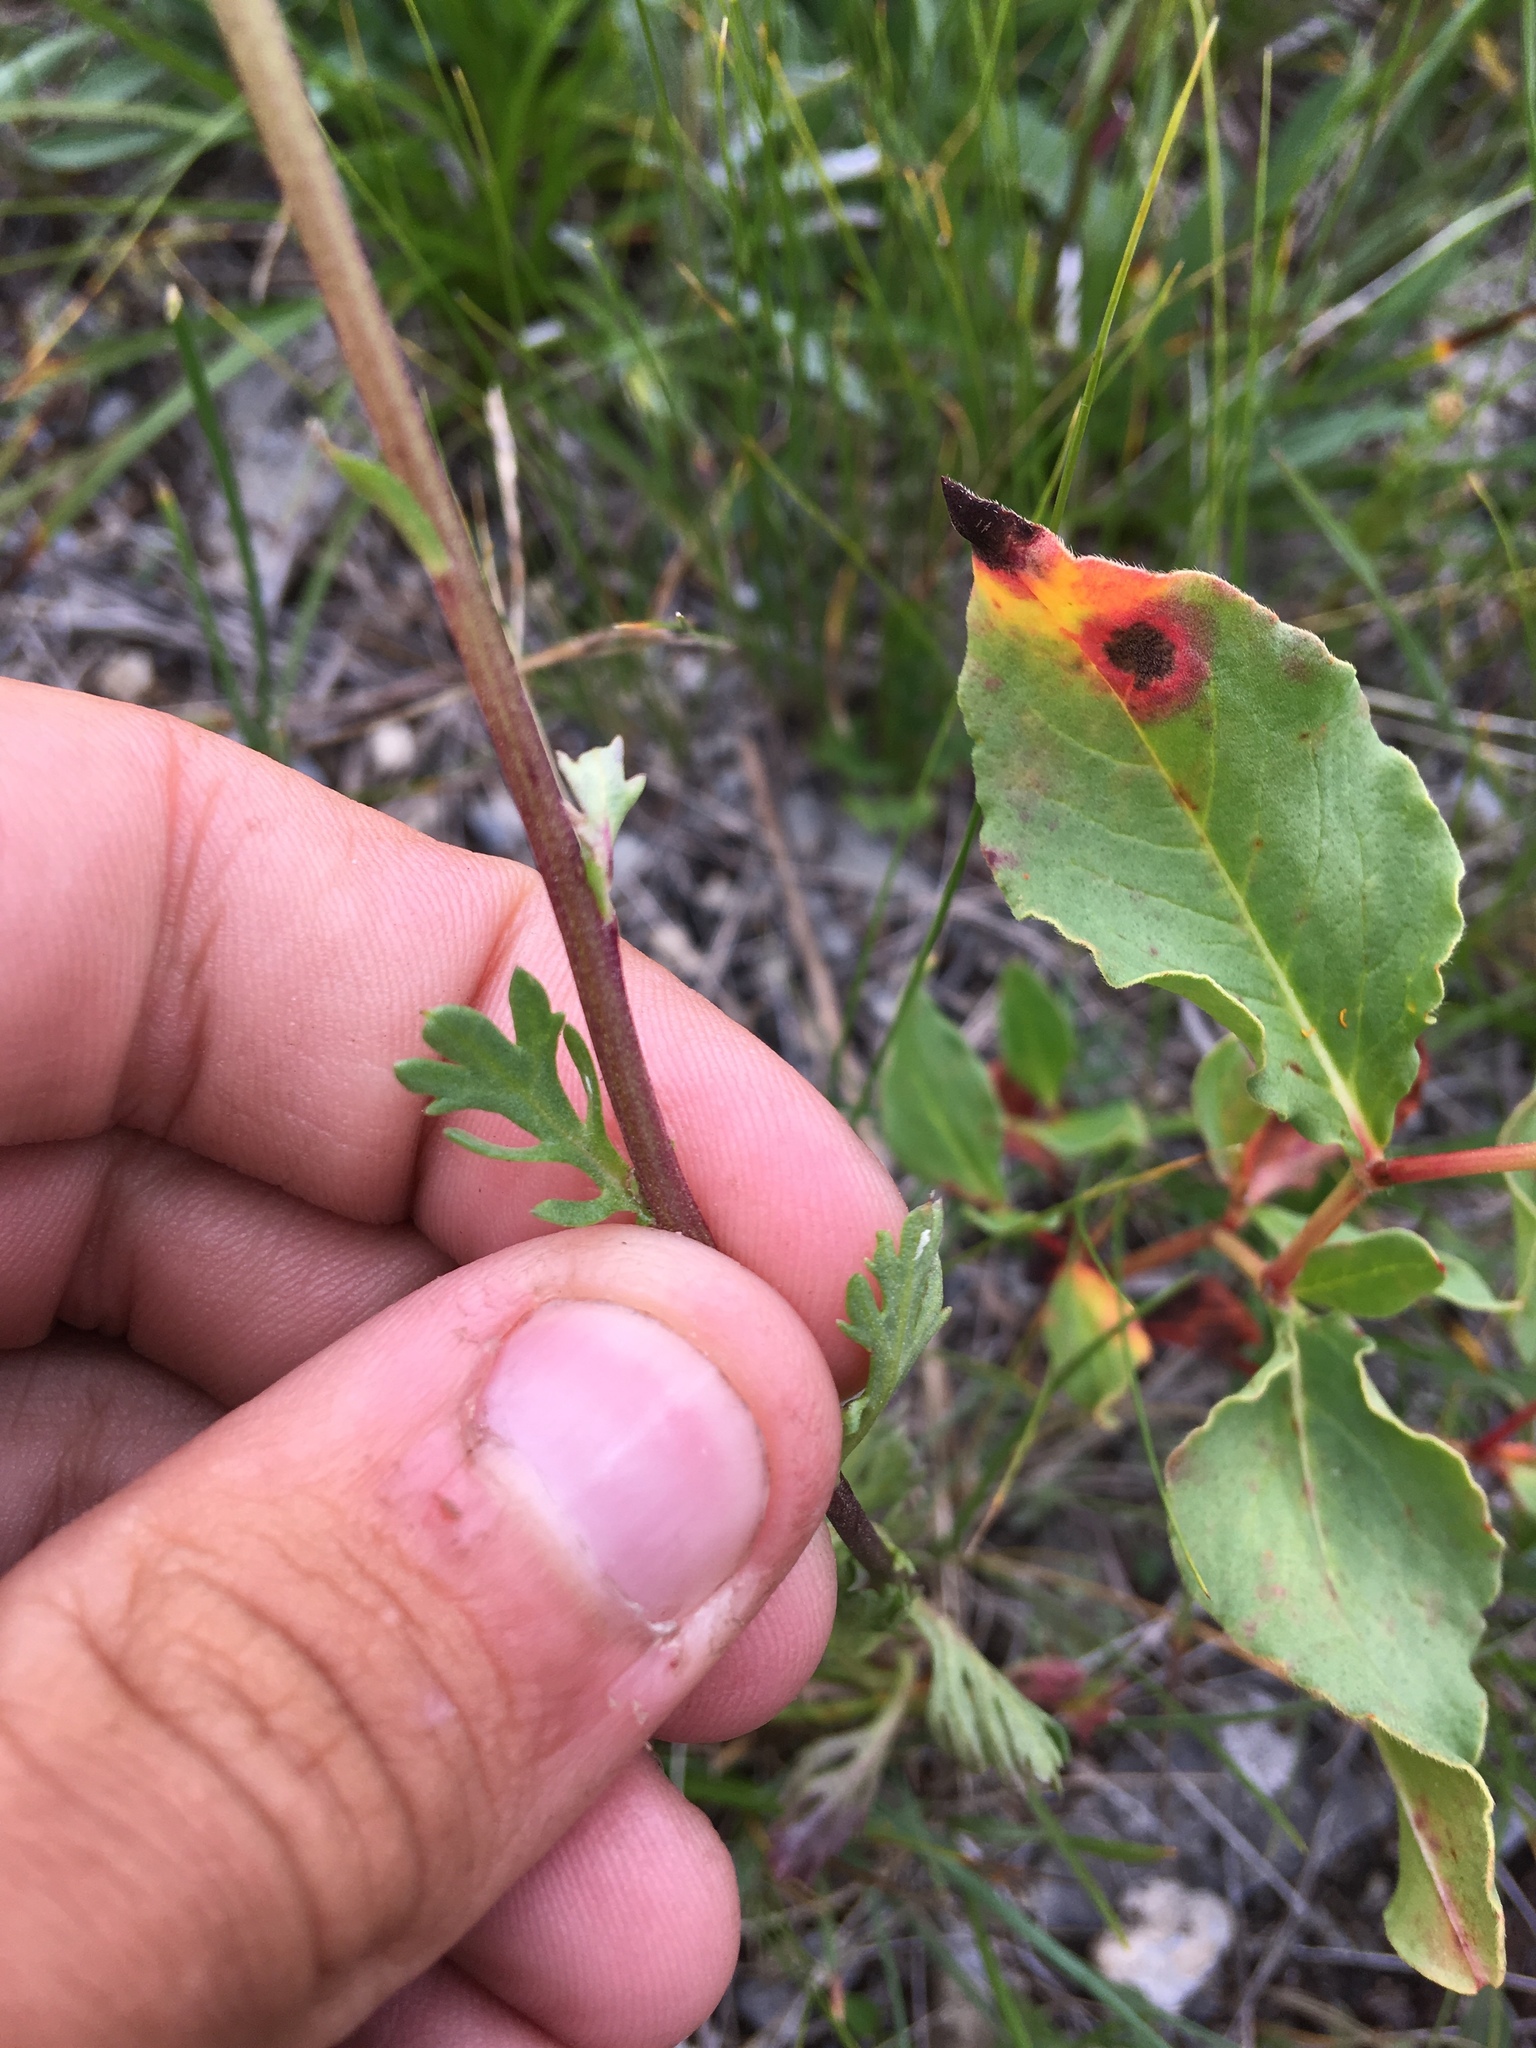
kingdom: Plantae
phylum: Tracheophyta
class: Magnoliopsida
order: Asterales
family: Asteraceae
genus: Chrysanthemum
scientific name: Chrysanthemum zawadzkii
